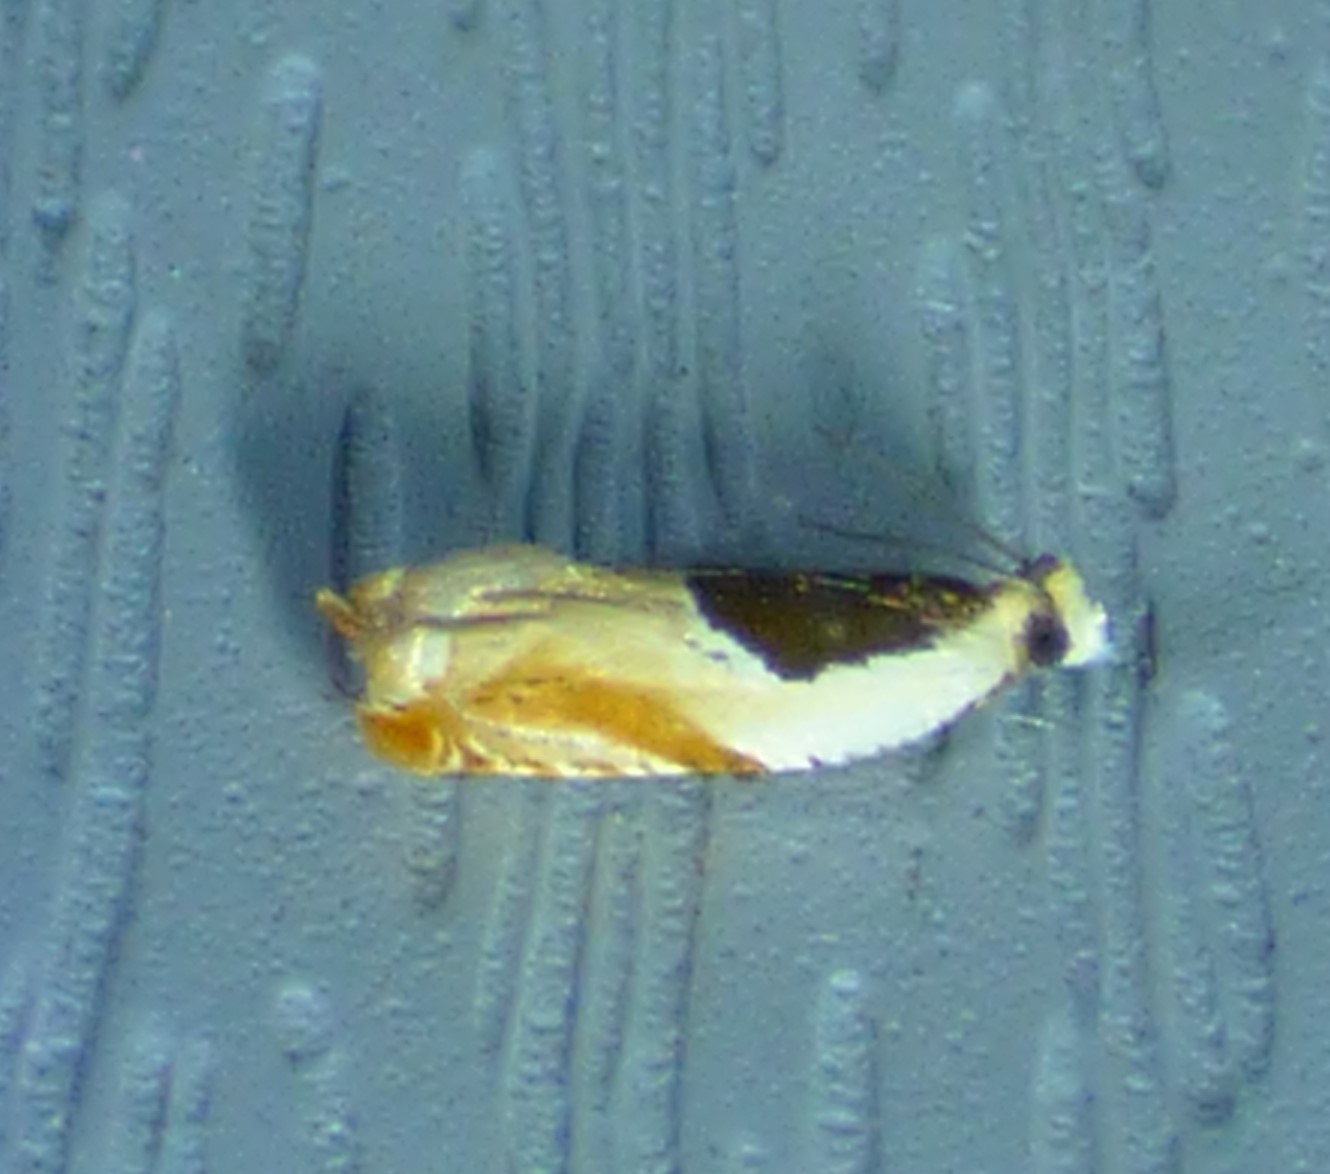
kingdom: Animalia
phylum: Arthropoda
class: Insecta
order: Lepidoptera
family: Tortricidae
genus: Ancylis
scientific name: Ancylis burgessiana
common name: Oak leaffolder moth
